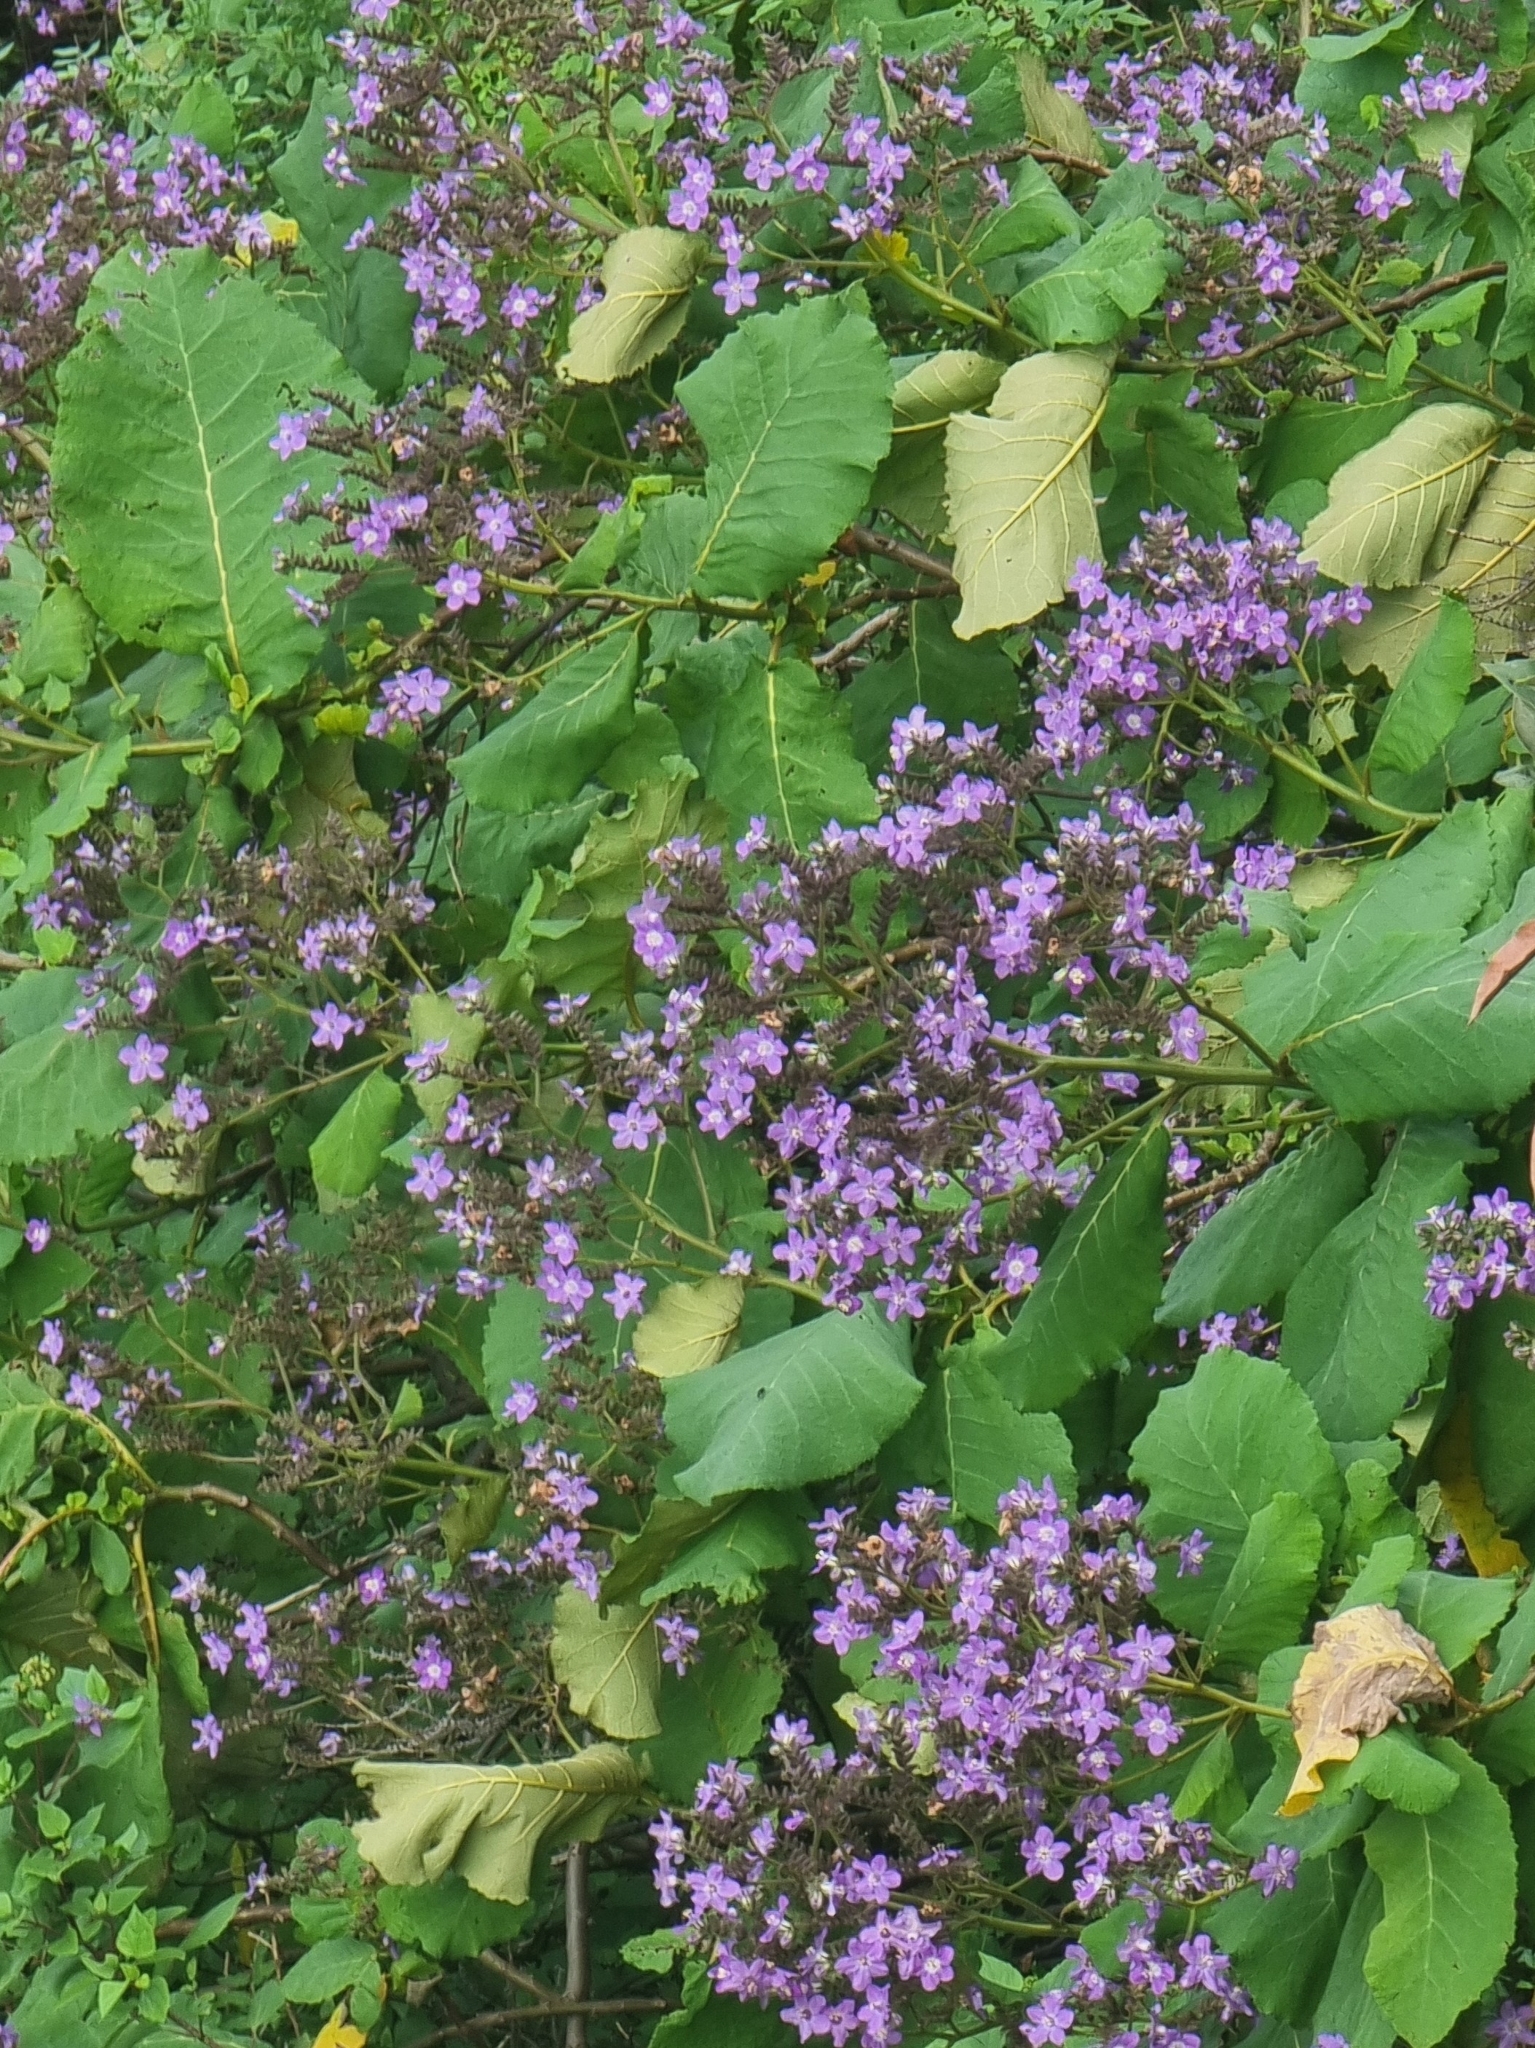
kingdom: Plantae
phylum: Tracheophyta
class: Magnoliopsida
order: Boraginales
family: Namaceae
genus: Wigandia
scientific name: Wigandia urens
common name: Caracus wigandia
